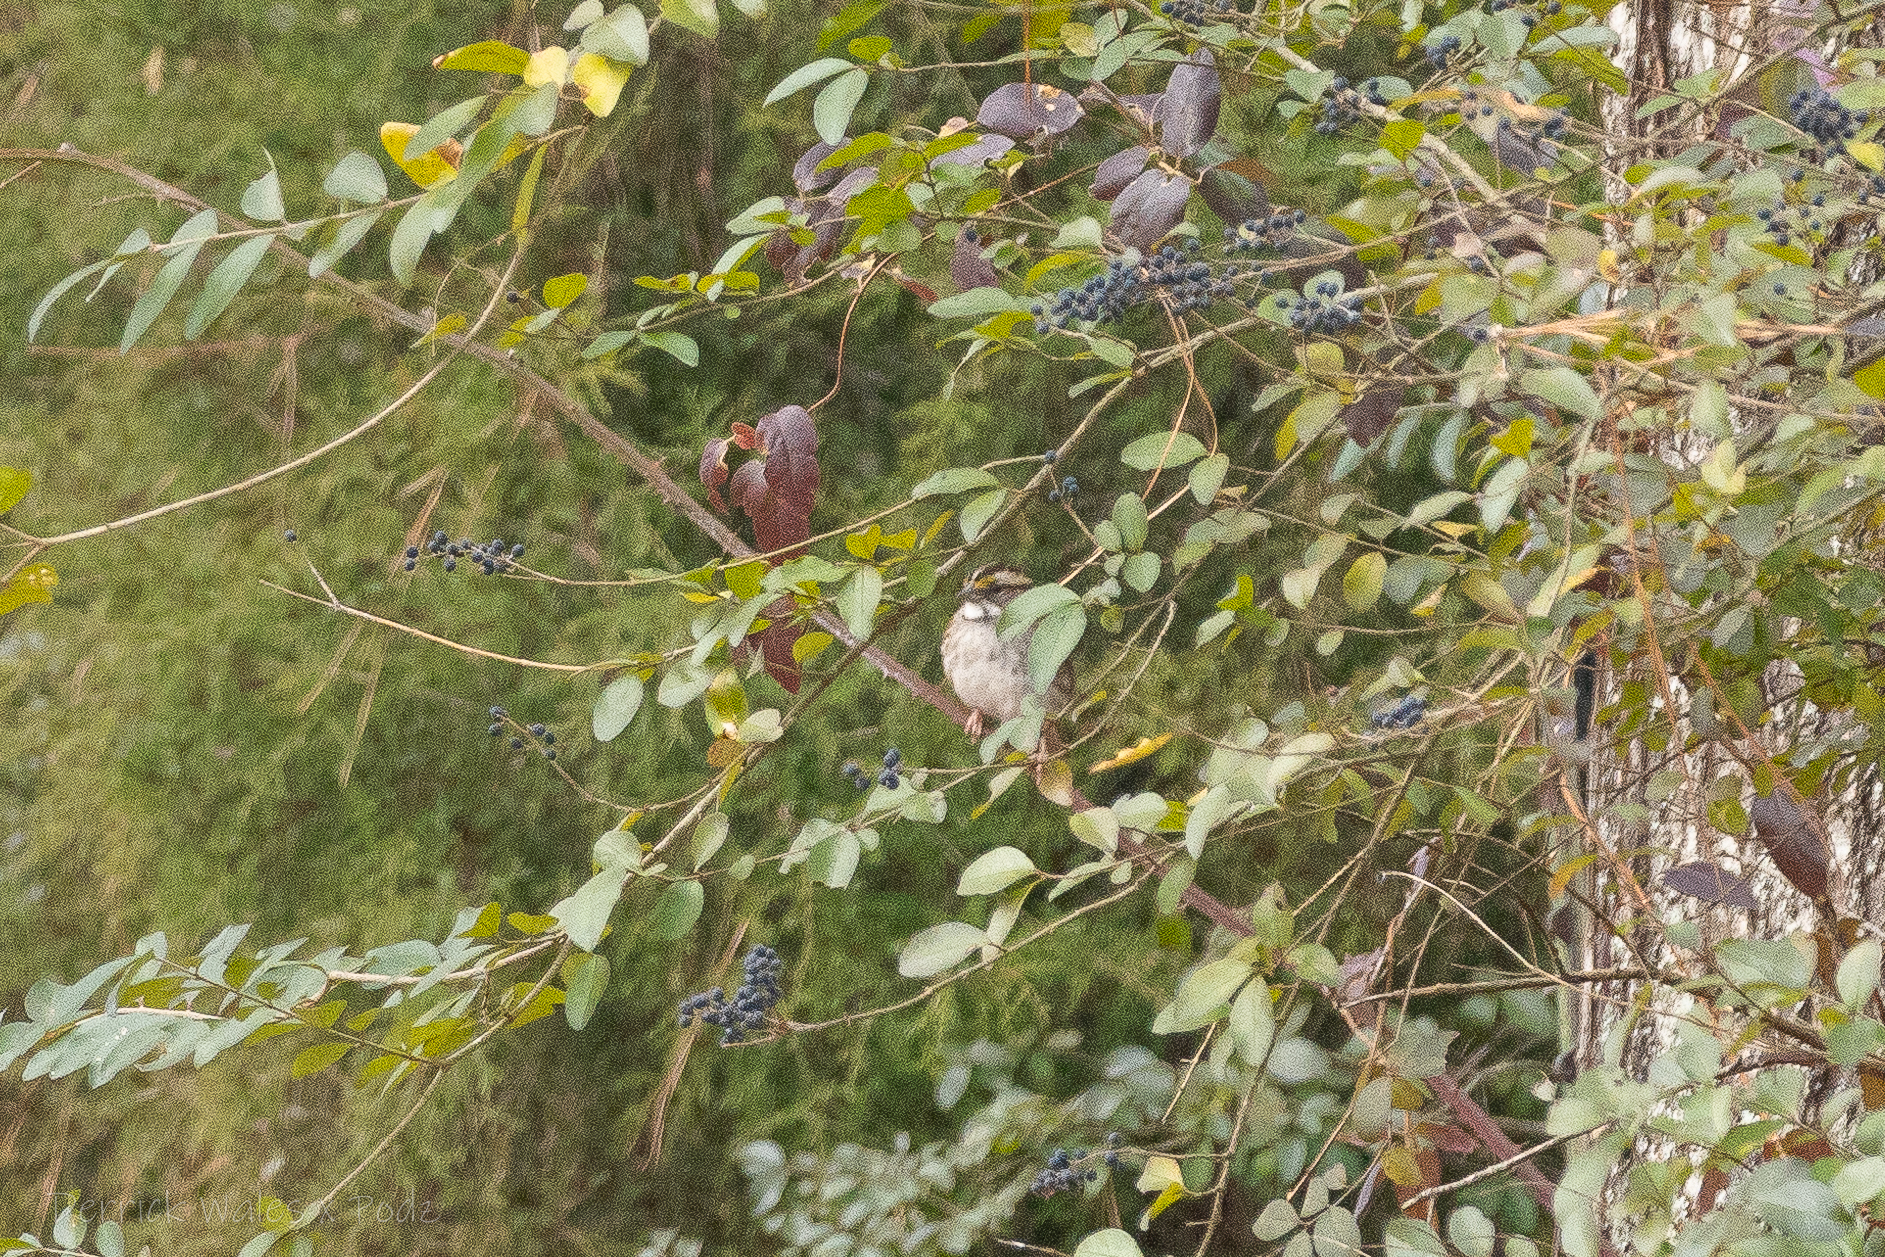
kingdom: Animalia
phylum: Chordata
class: Aves
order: Passeriformes
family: Passerellidae
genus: Zonotrichia
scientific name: Zonotrichia albicollis
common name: White-throated sparrow
